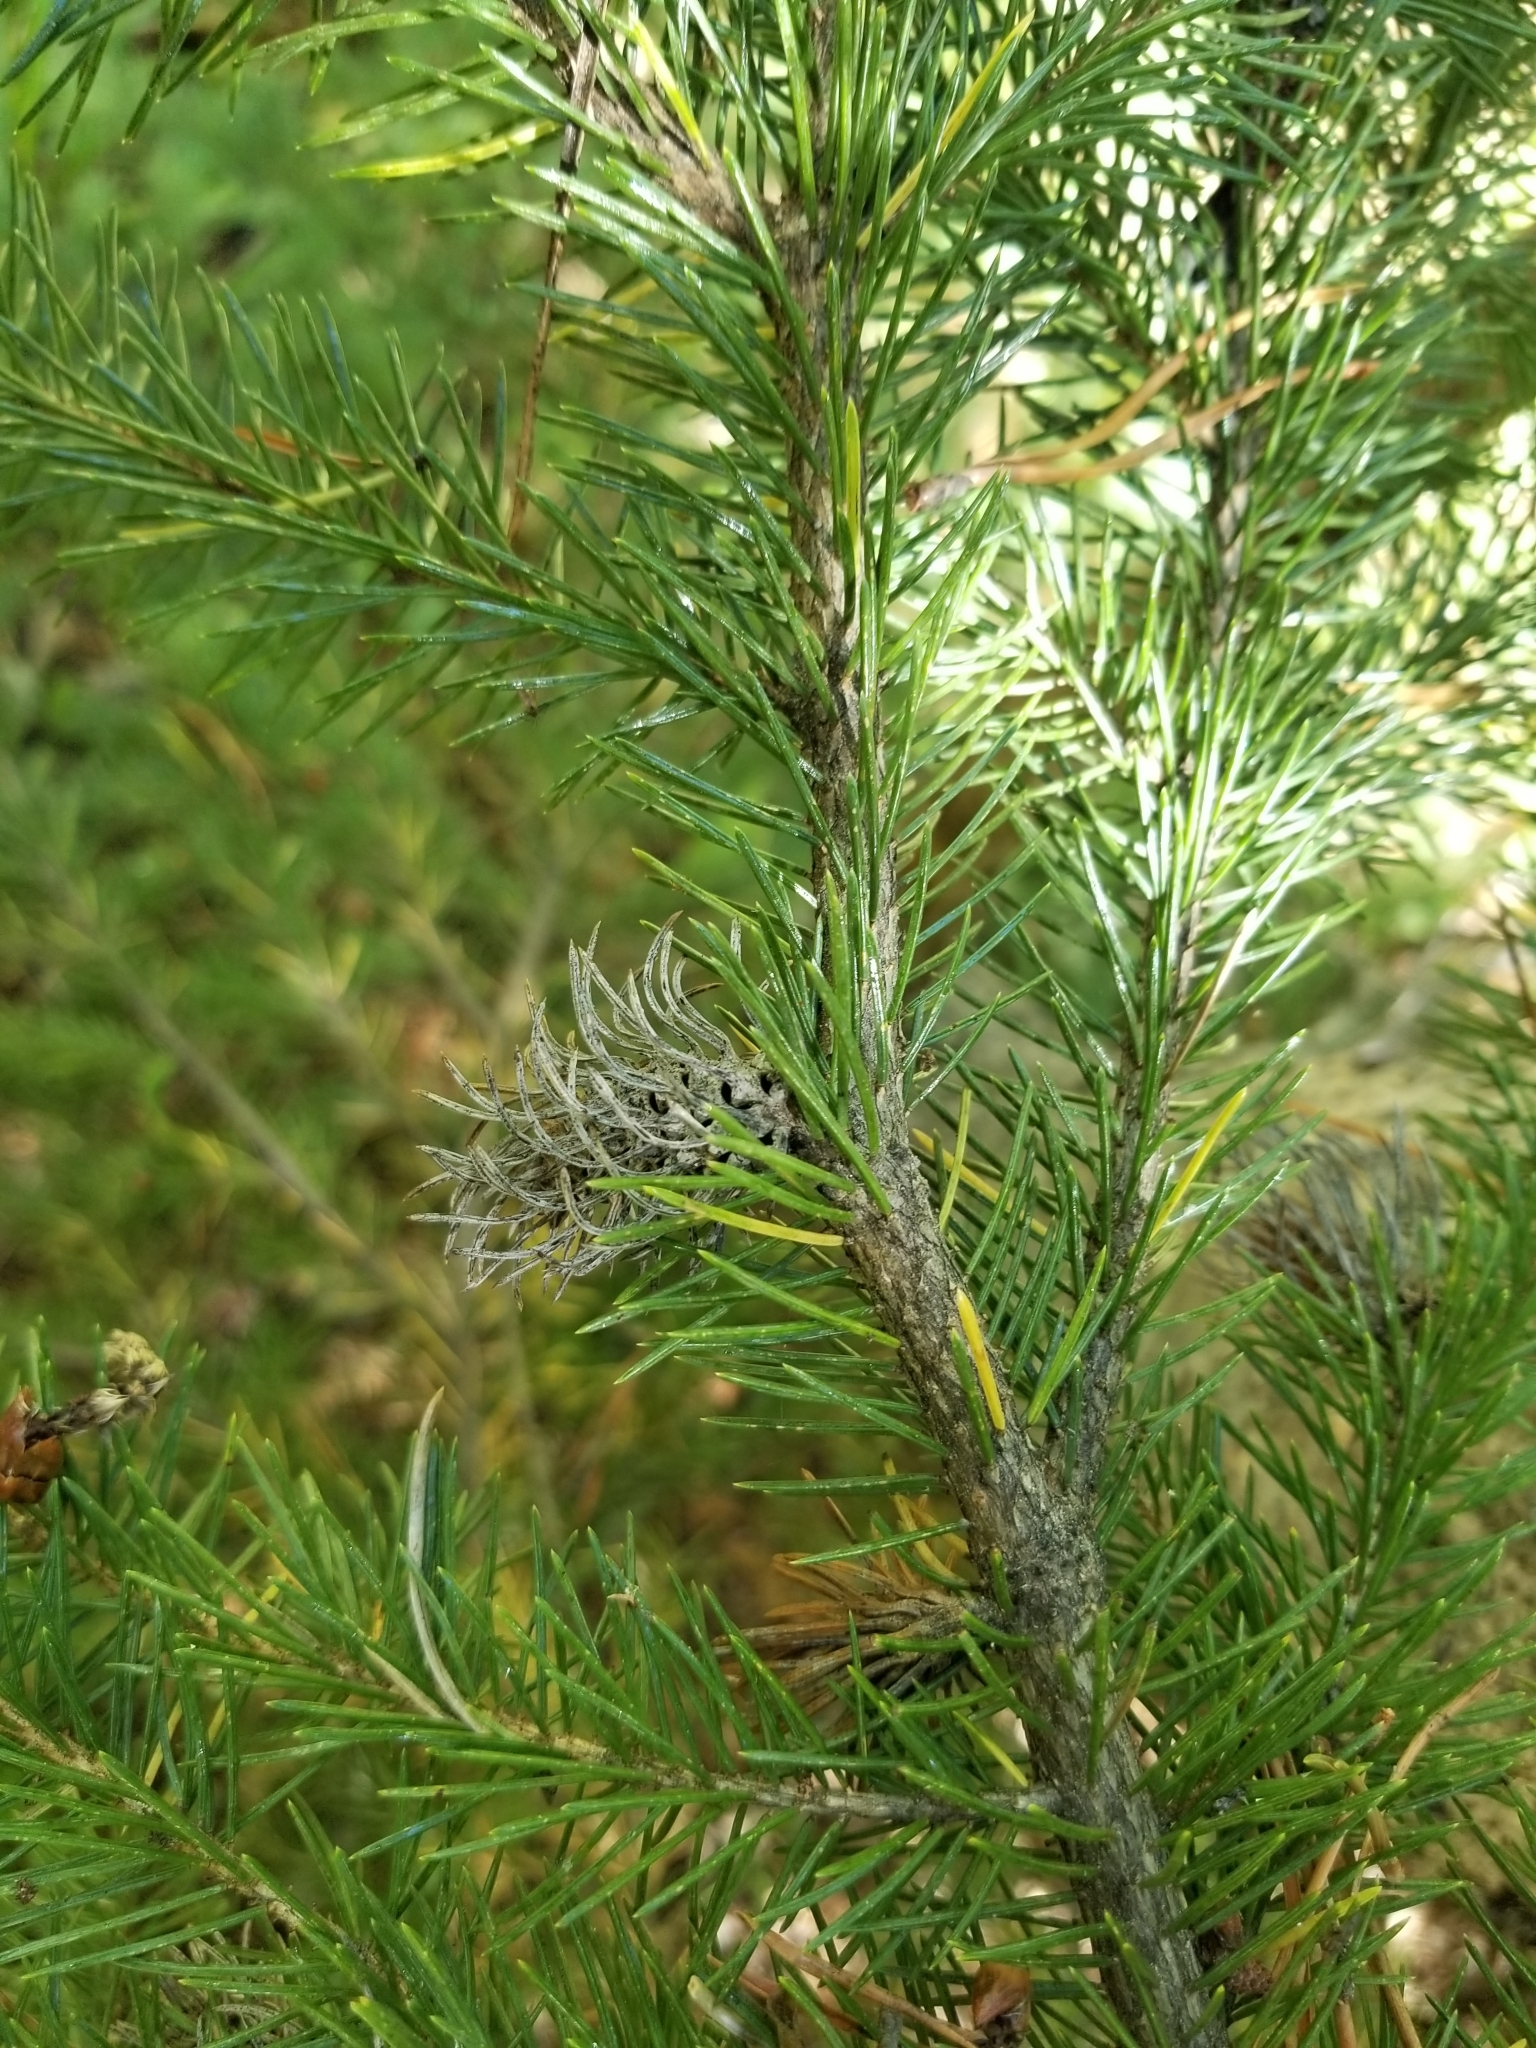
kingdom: Plantae
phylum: Tracheophyta
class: Pinopsida
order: Pinales
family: Pinaceae
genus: Picea
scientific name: Picea engelmannii
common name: Engelmann spruce
